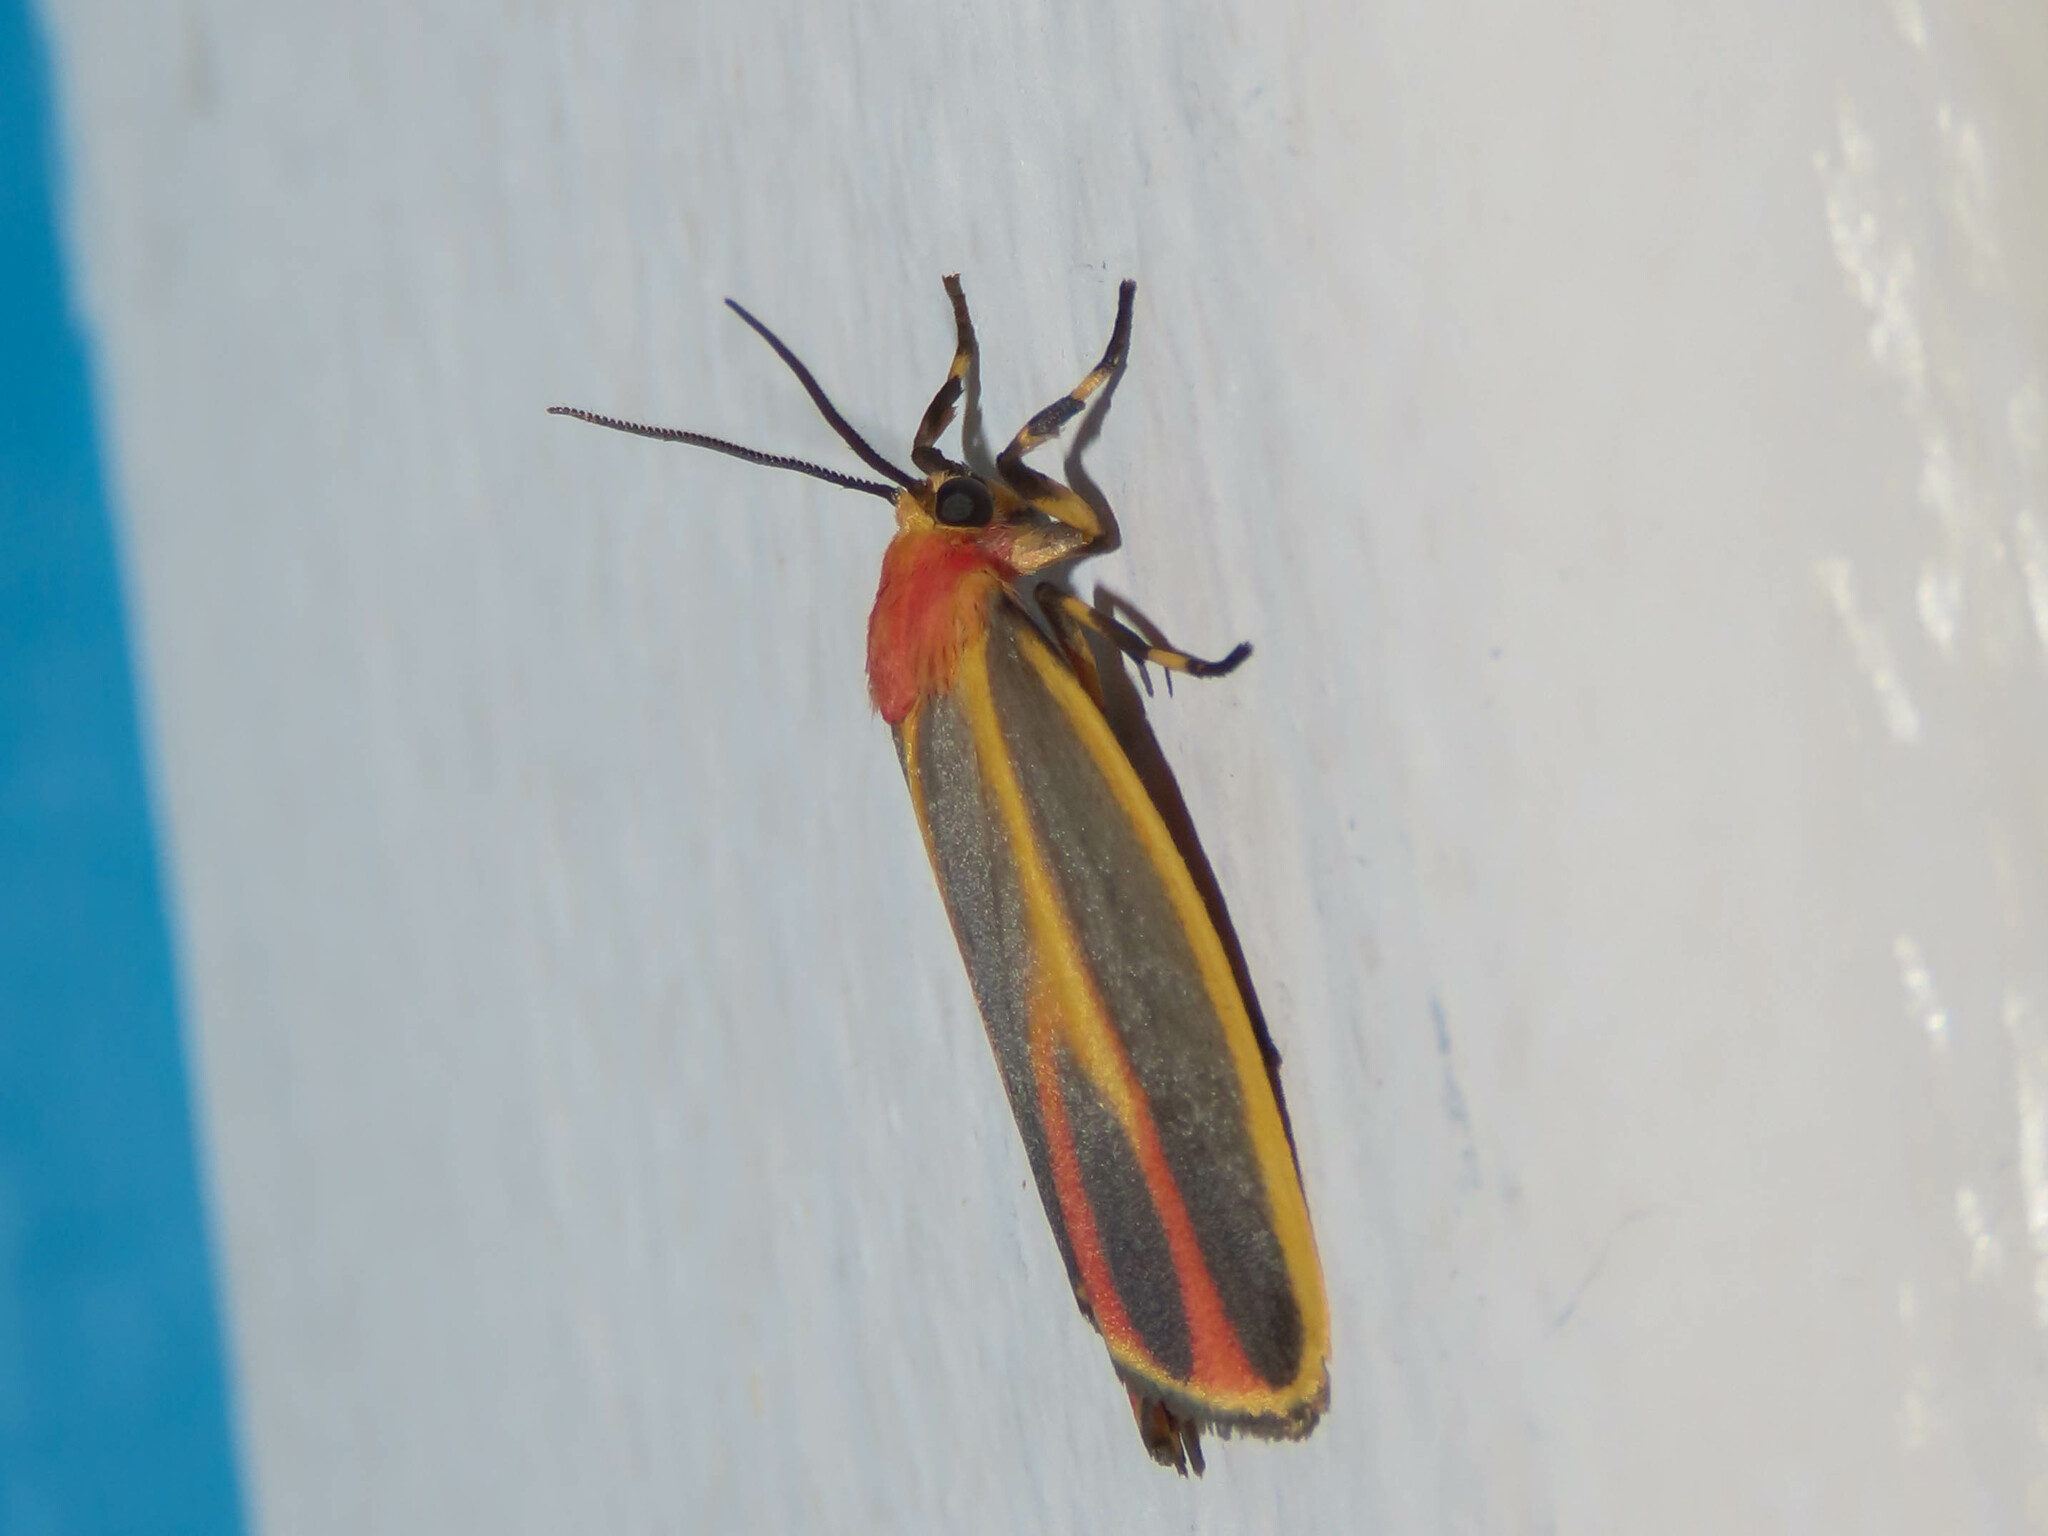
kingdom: Animalia
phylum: Arthropoda
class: Insecta
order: Lepidoptera
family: Erebidae
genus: Hypoprepia
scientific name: Hypoprepia fucosa
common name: Painted lichen moth
